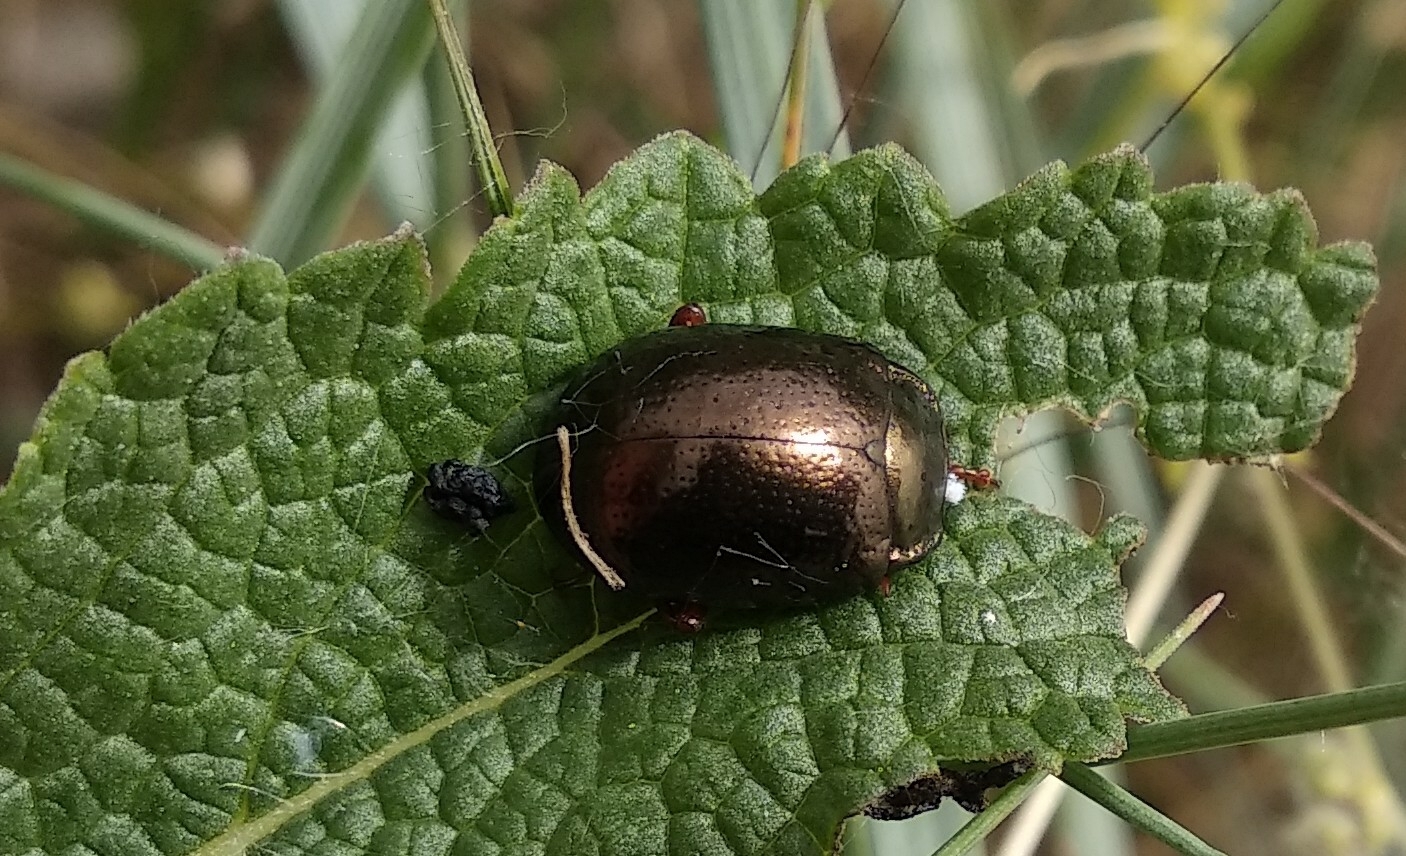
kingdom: Animalia
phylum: Arthropoda
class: Insecta
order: Coleoptera
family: Chrysomelidae
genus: Chrysolina
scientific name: Chrysolina bankii
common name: Leaf beetle
